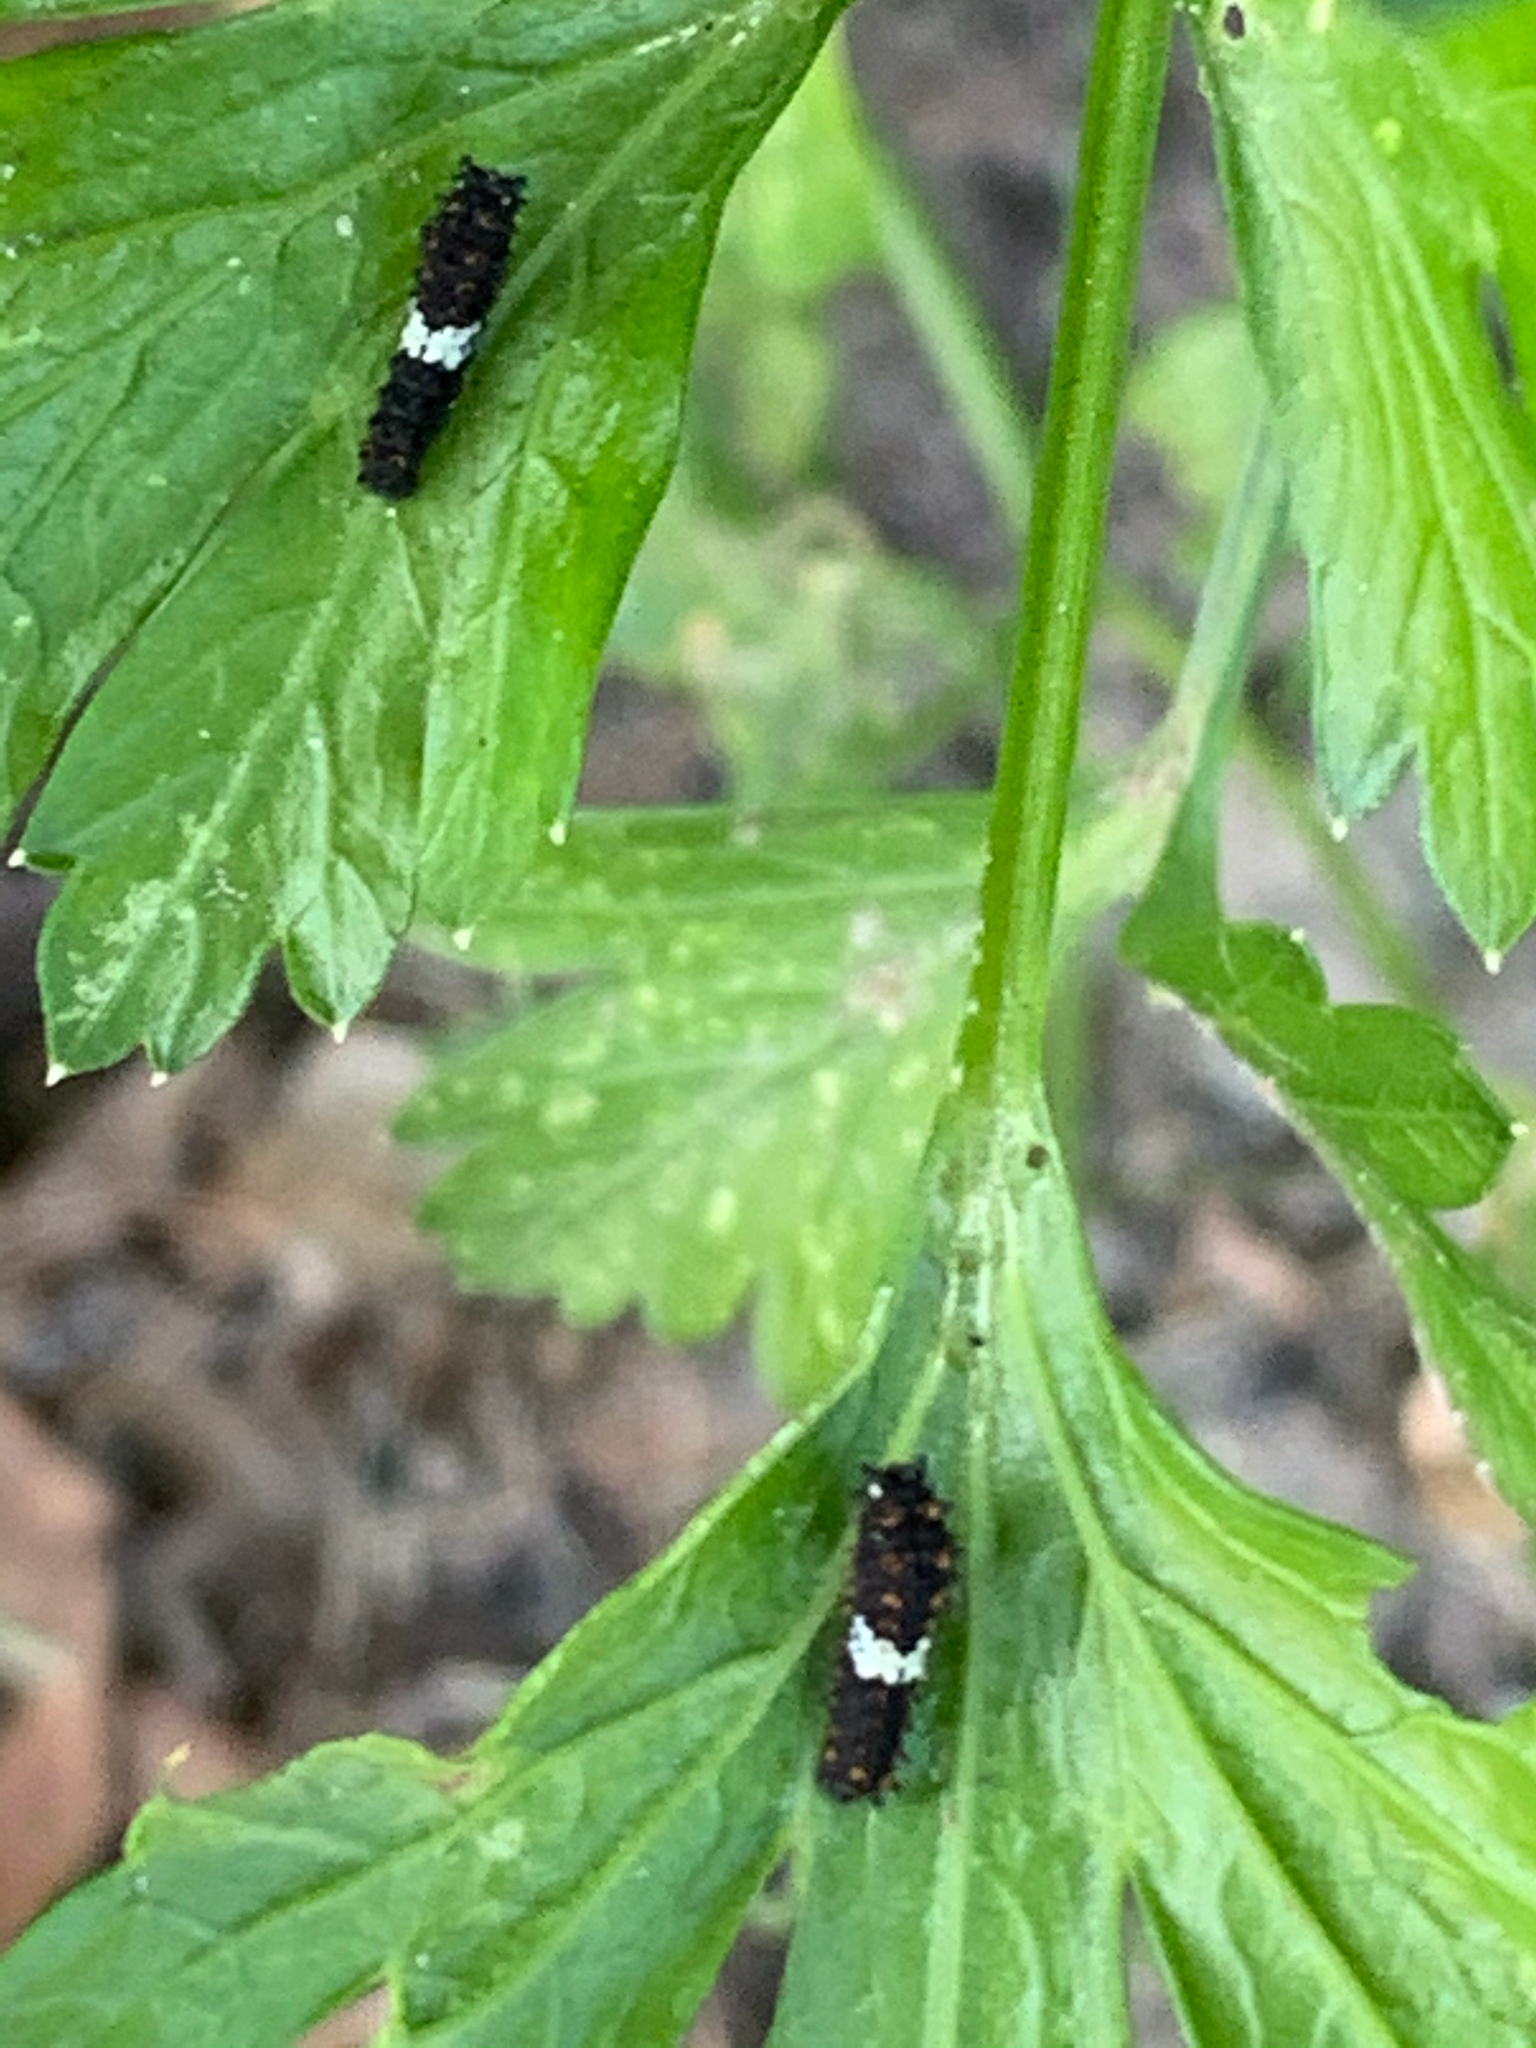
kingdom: Animalia
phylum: Arthropoda
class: Insecta
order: Lepidoptera
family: Papilionidae
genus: Papilio
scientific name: Papilio polyxenes
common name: Black swallowtail
